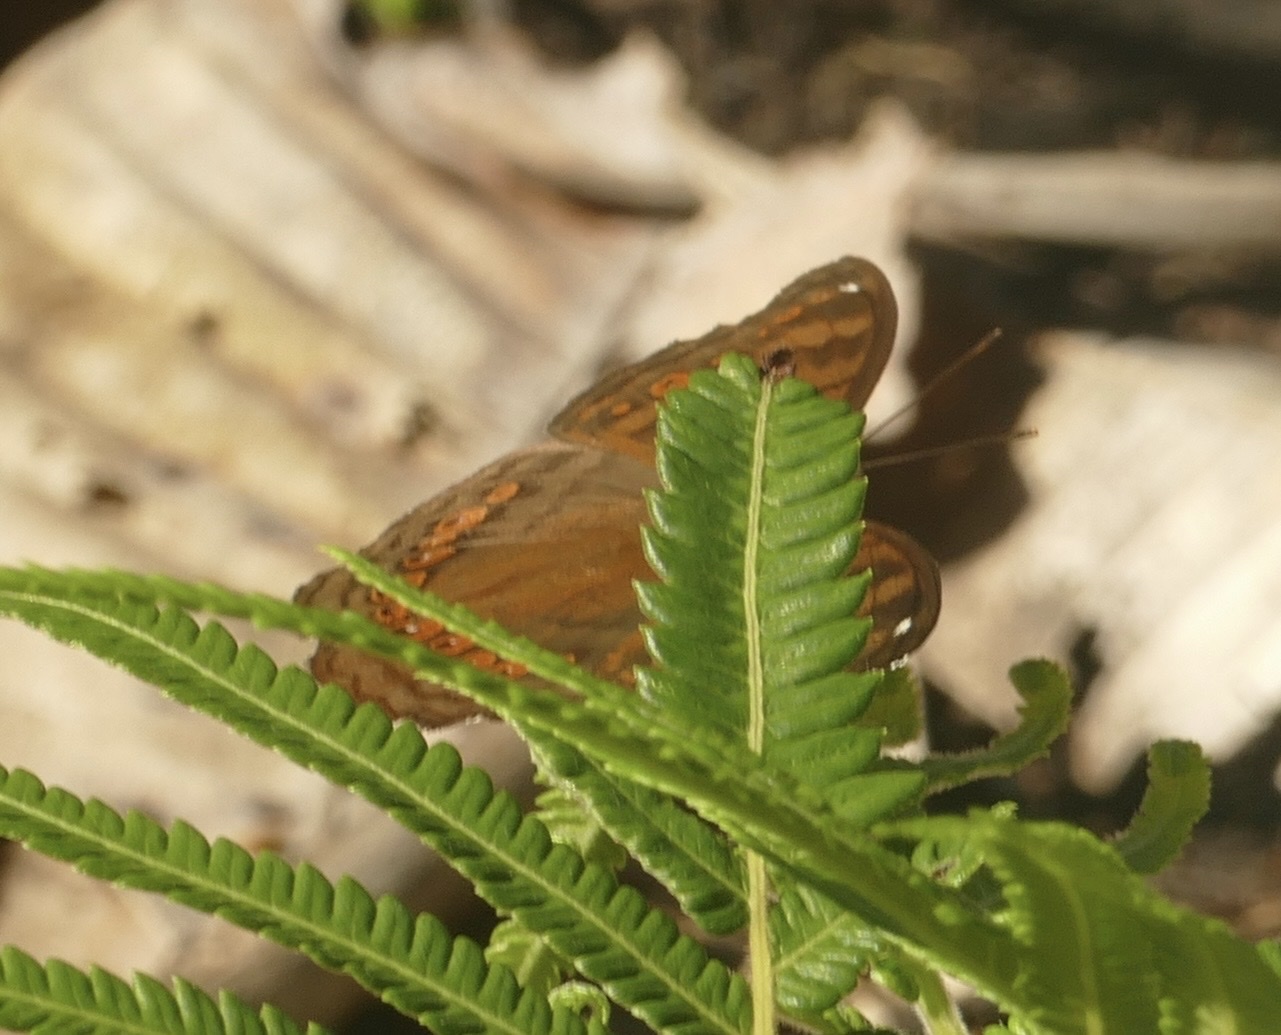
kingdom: Animalia
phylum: Arthropoda
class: Insecta
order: Lepidoptera
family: Nymphalidae
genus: Junonia
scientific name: Junonia hedonia
